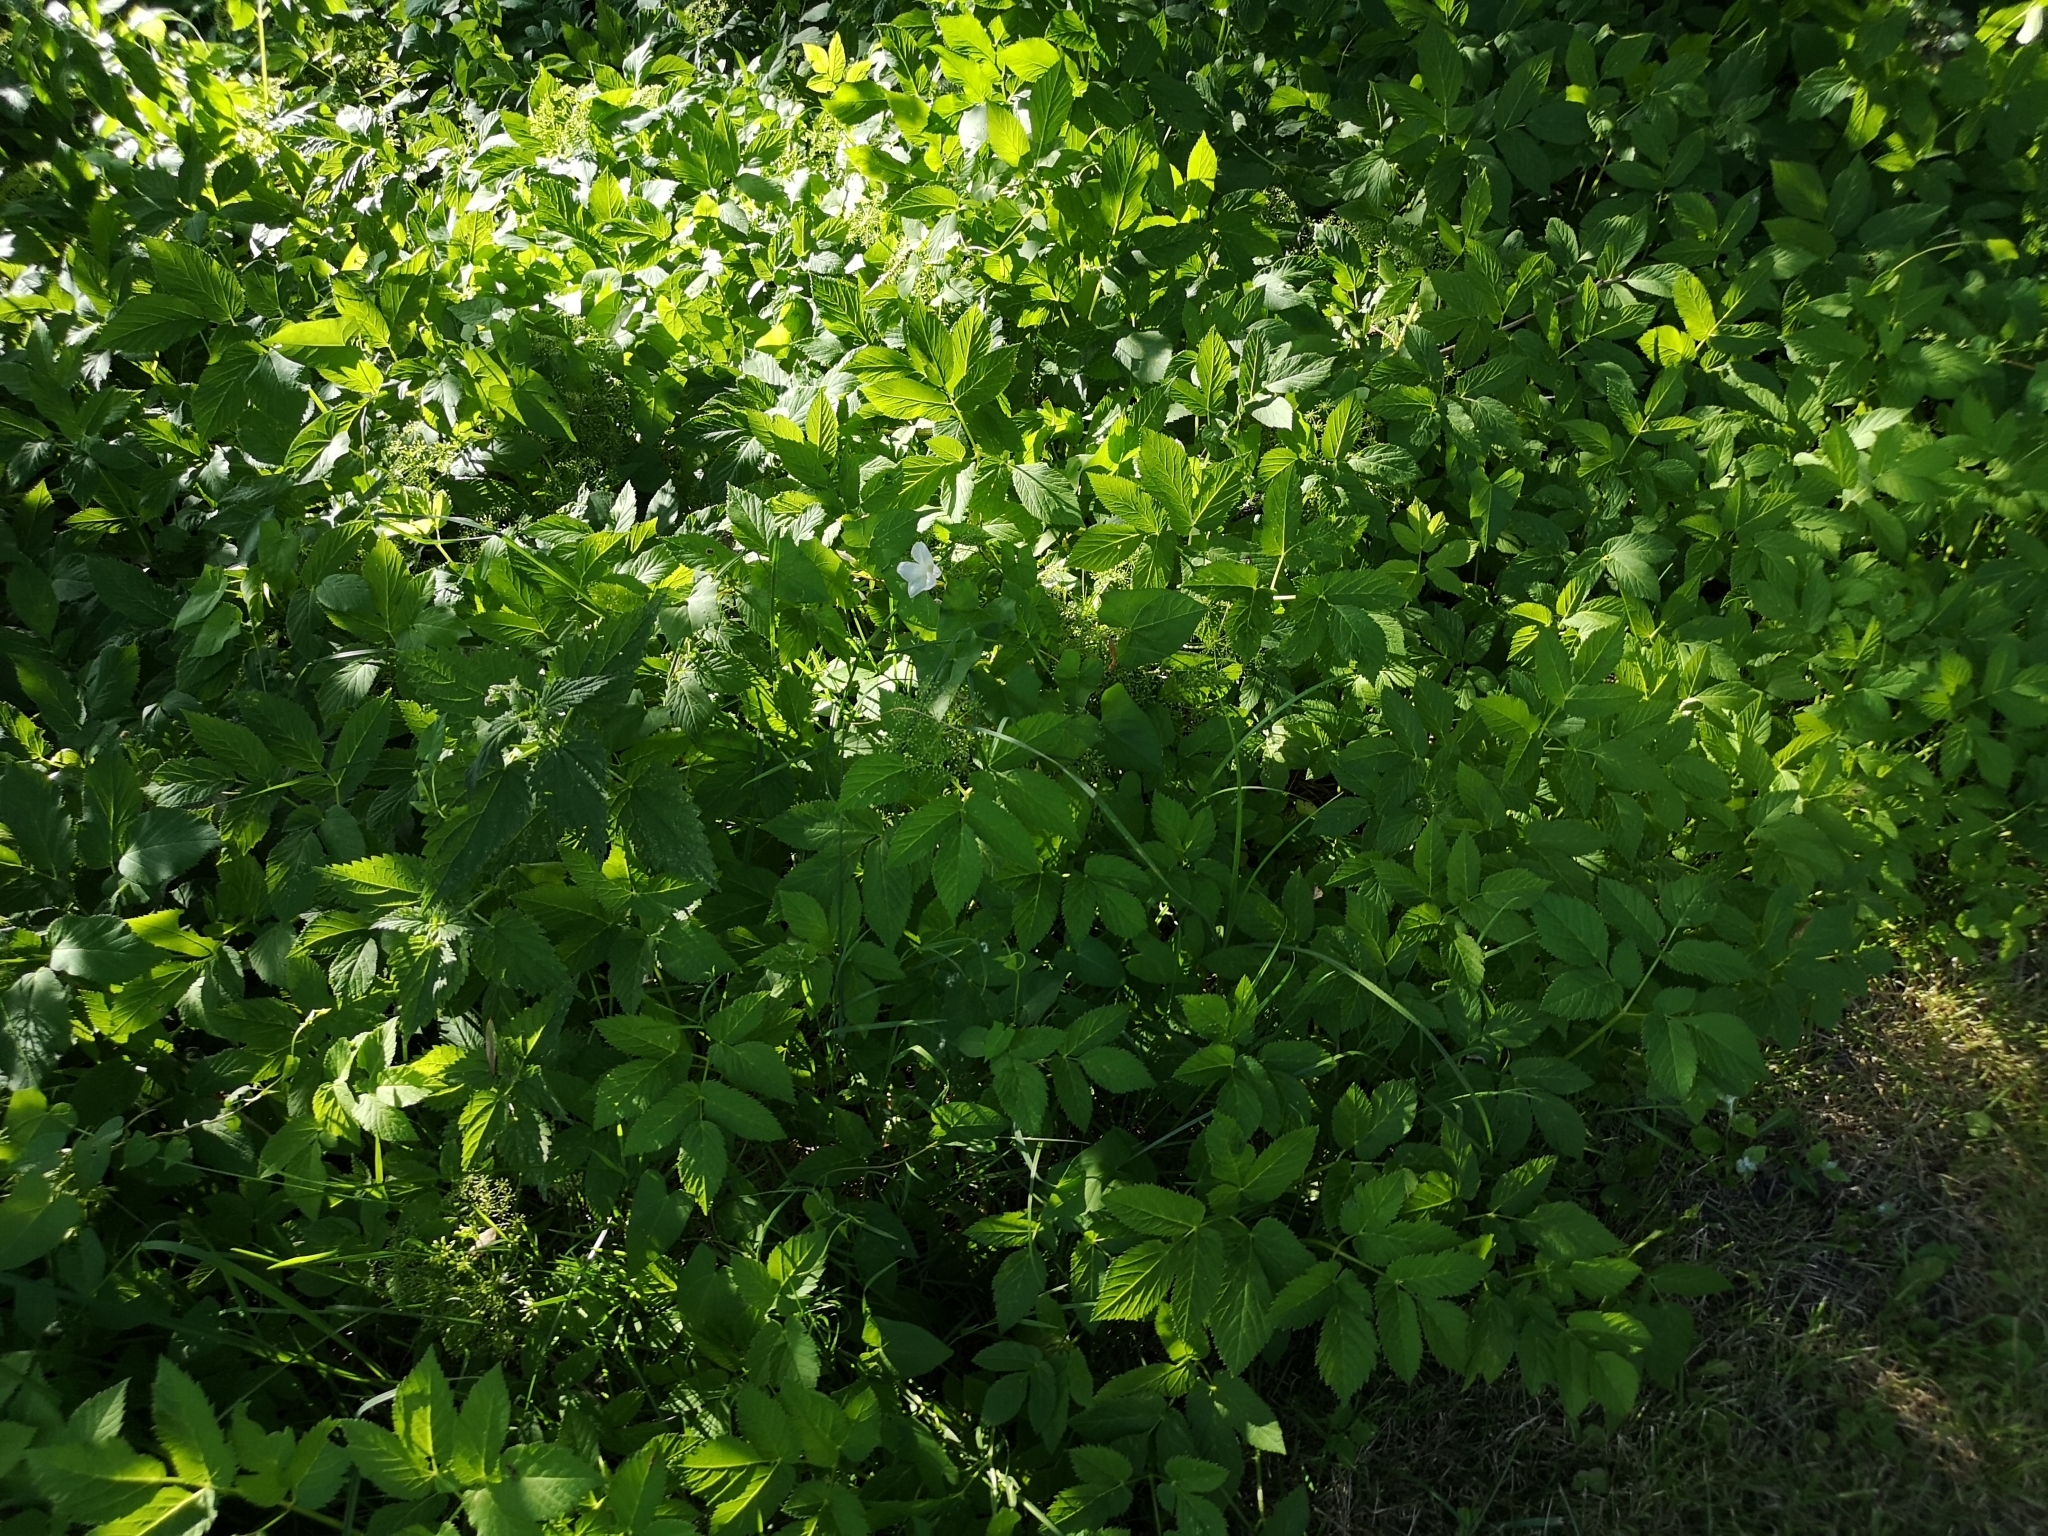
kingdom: Plantae
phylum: Tracheophyta
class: Magnoliopsida
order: Apiales
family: Apiaceae
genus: Aegopodium
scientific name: Aegopodium podagraria
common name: Ground-elder
